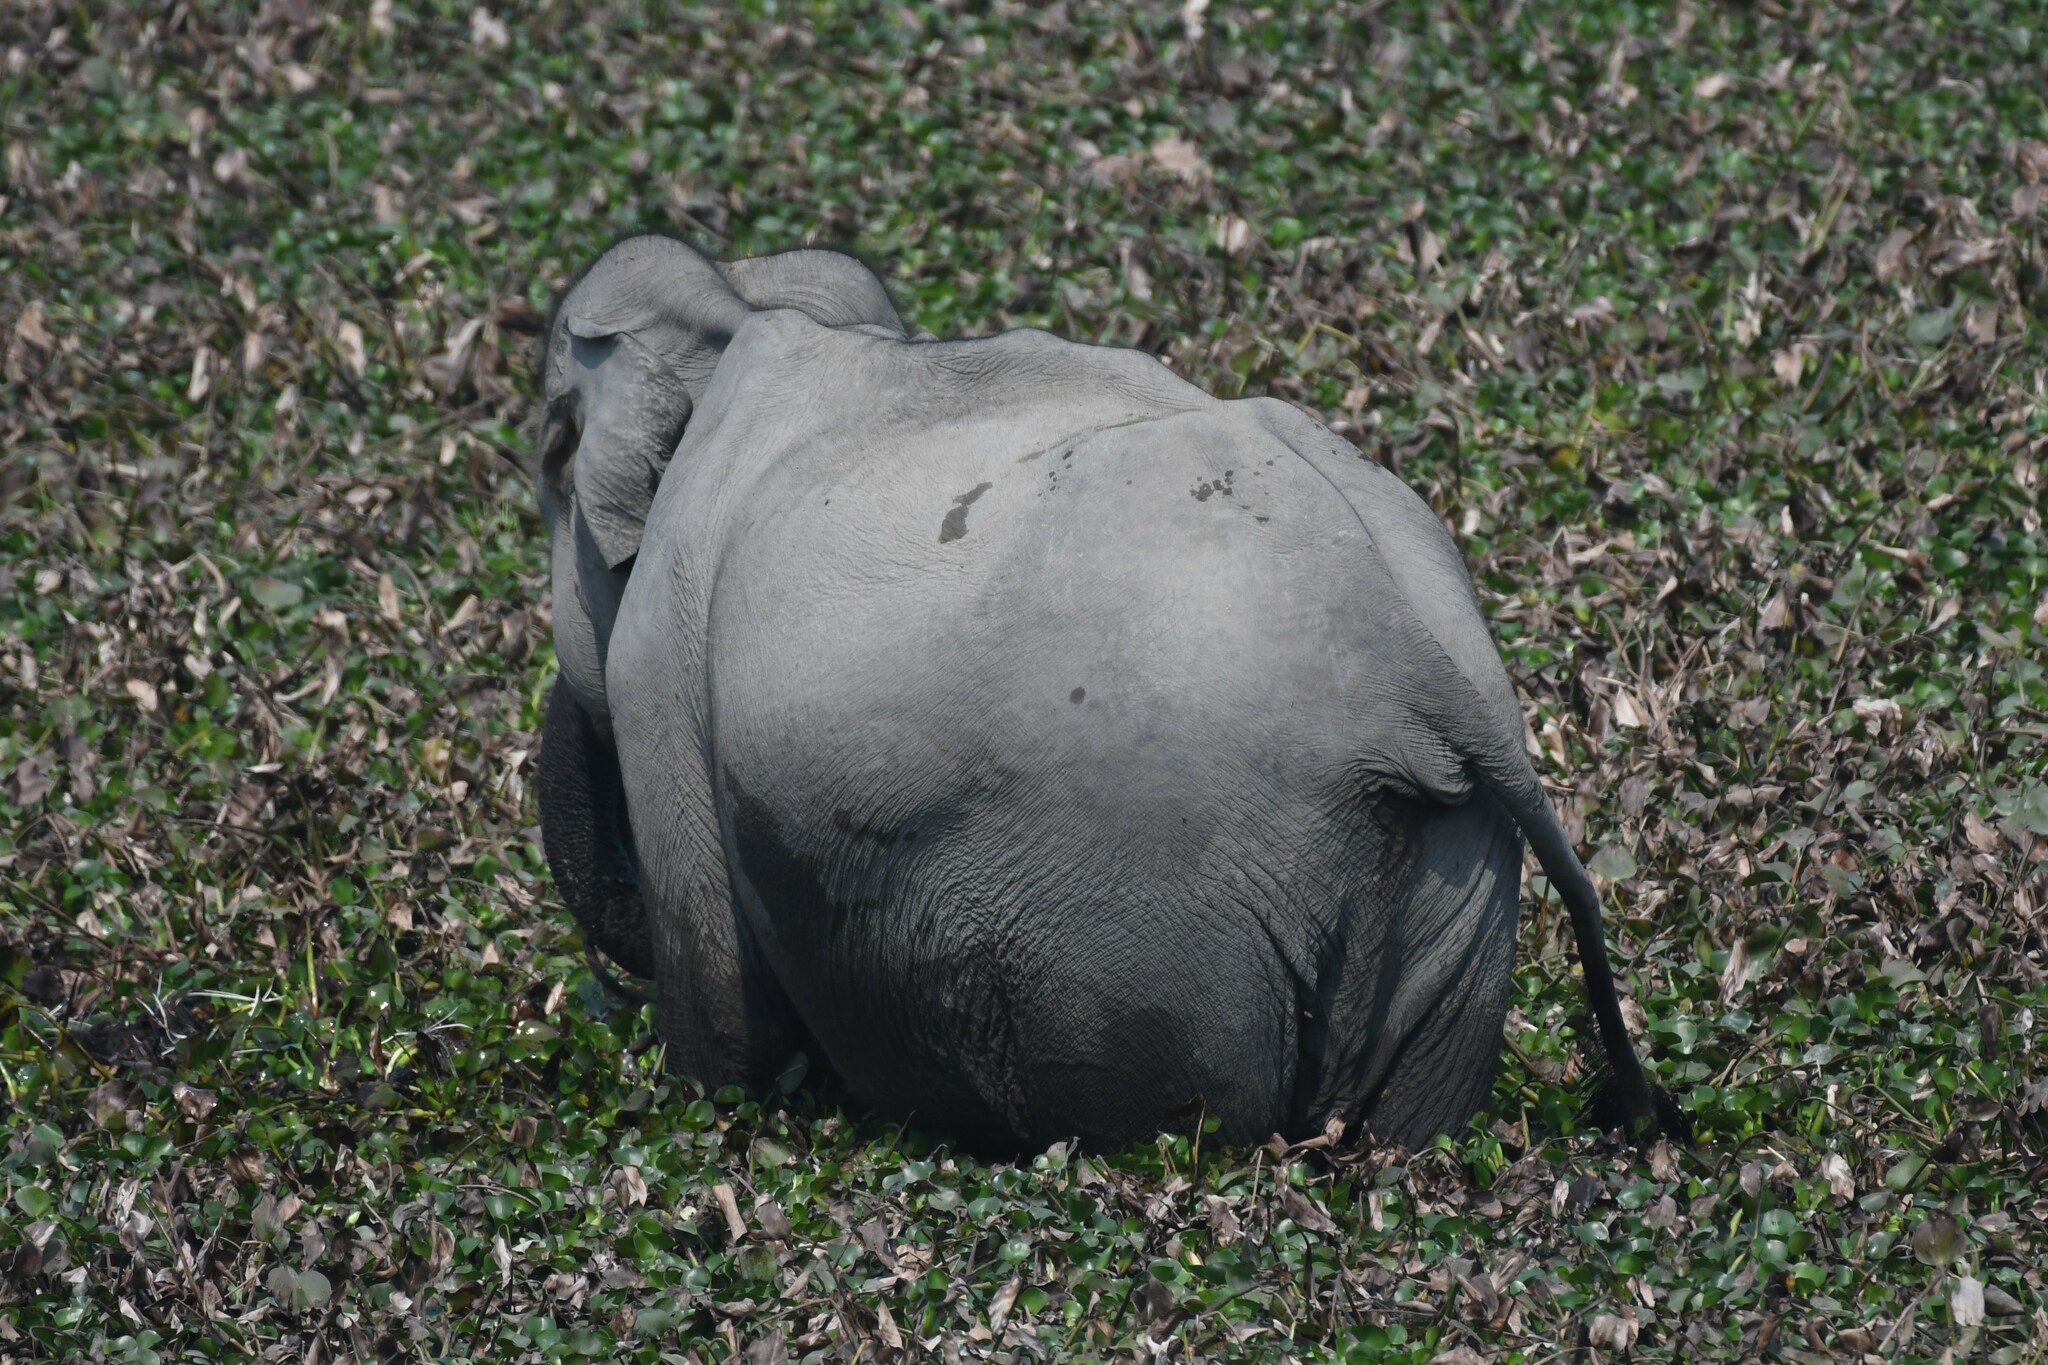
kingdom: Animalia
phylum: Chordata
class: Mammalia
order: Proboscidea
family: Elephantidae
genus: Elephas
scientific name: Elephas maximus
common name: Asian elephant
